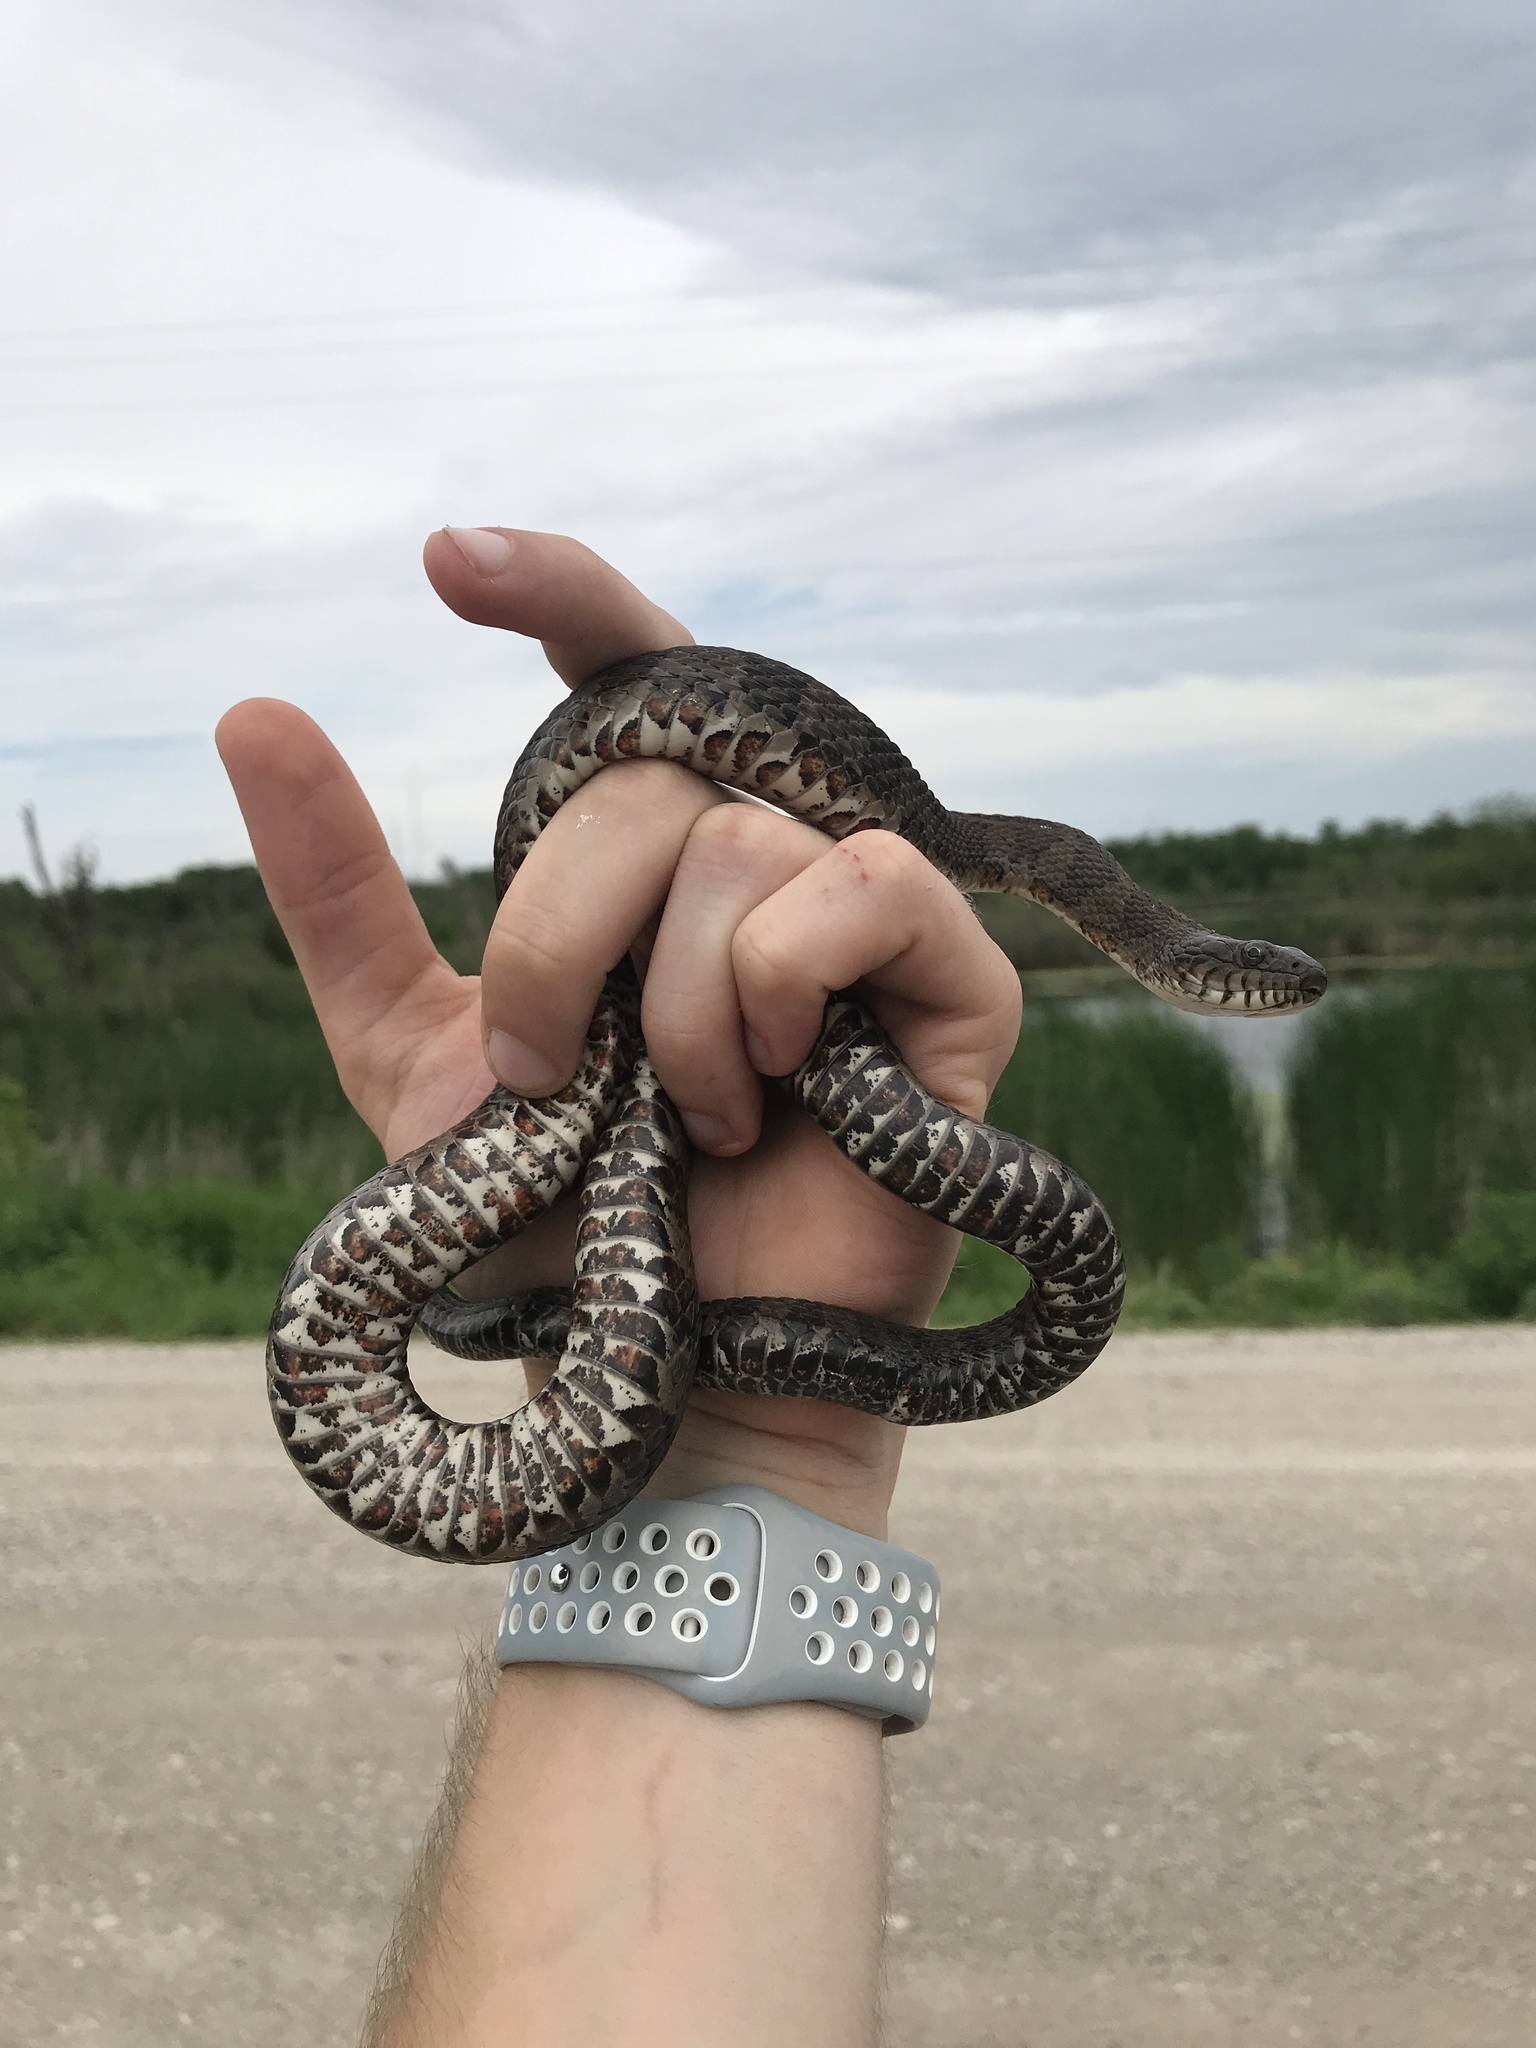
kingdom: Animalia
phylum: Chordata
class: Squamata
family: Colubridae
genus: Nerodia
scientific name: Nerodia sipedon
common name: Northern water snake
